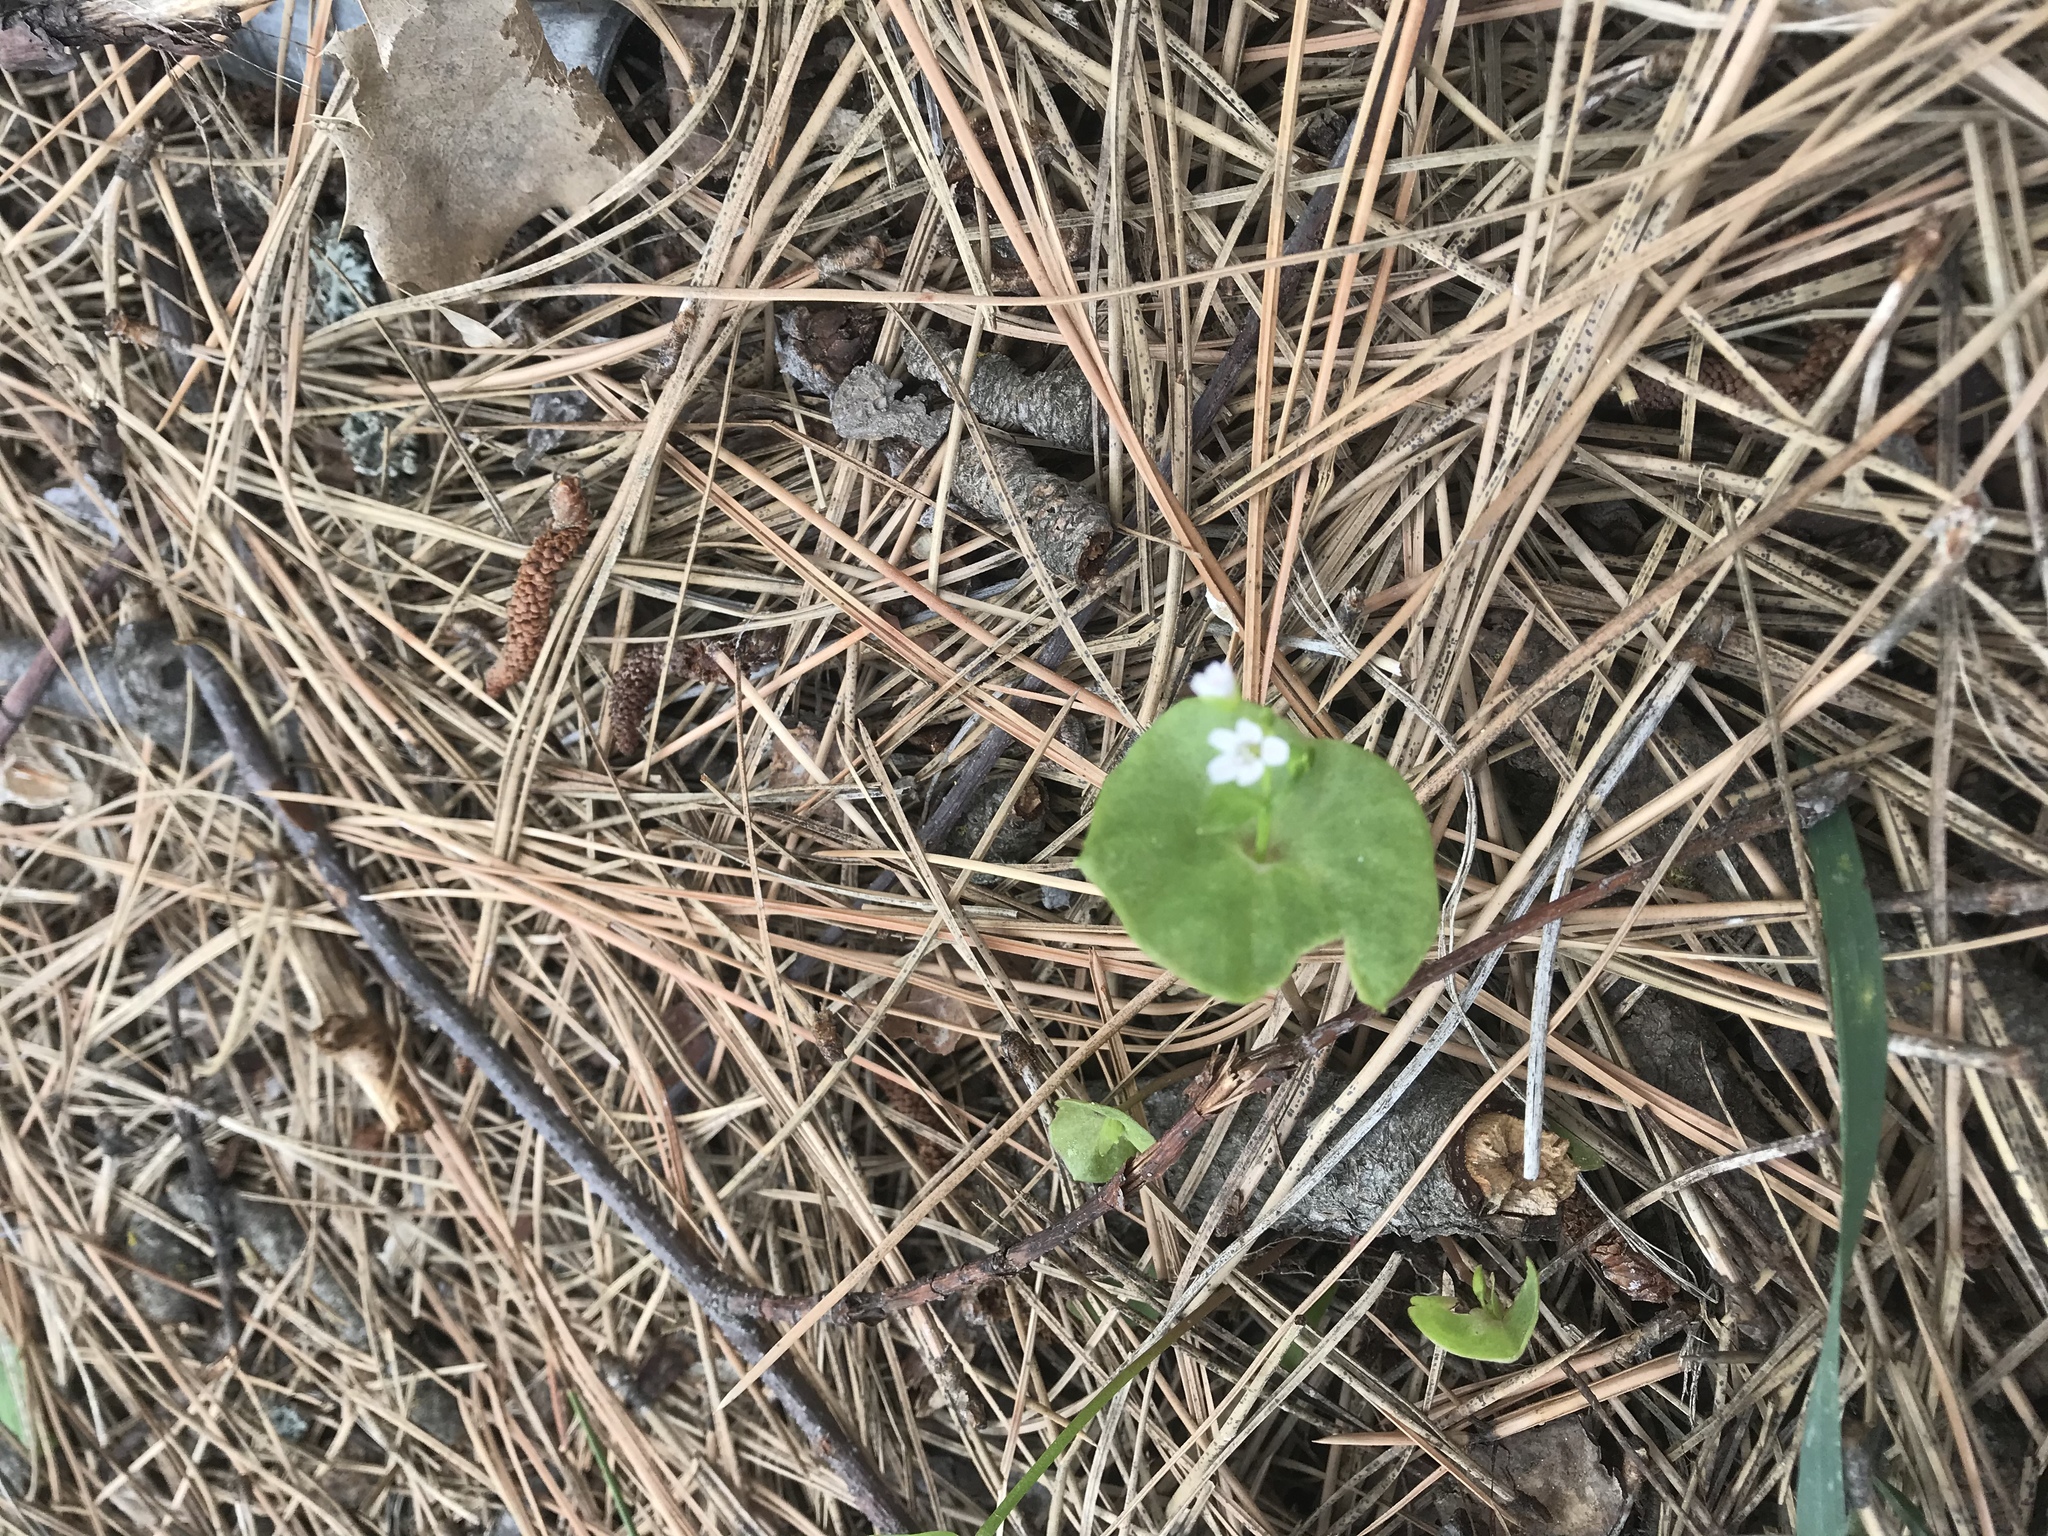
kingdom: Plantae
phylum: Tracheophyta
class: Magnoliopsida
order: Caryophyllales
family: Montiaceae
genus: Claytonia
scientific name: Claytonia perfoliata
